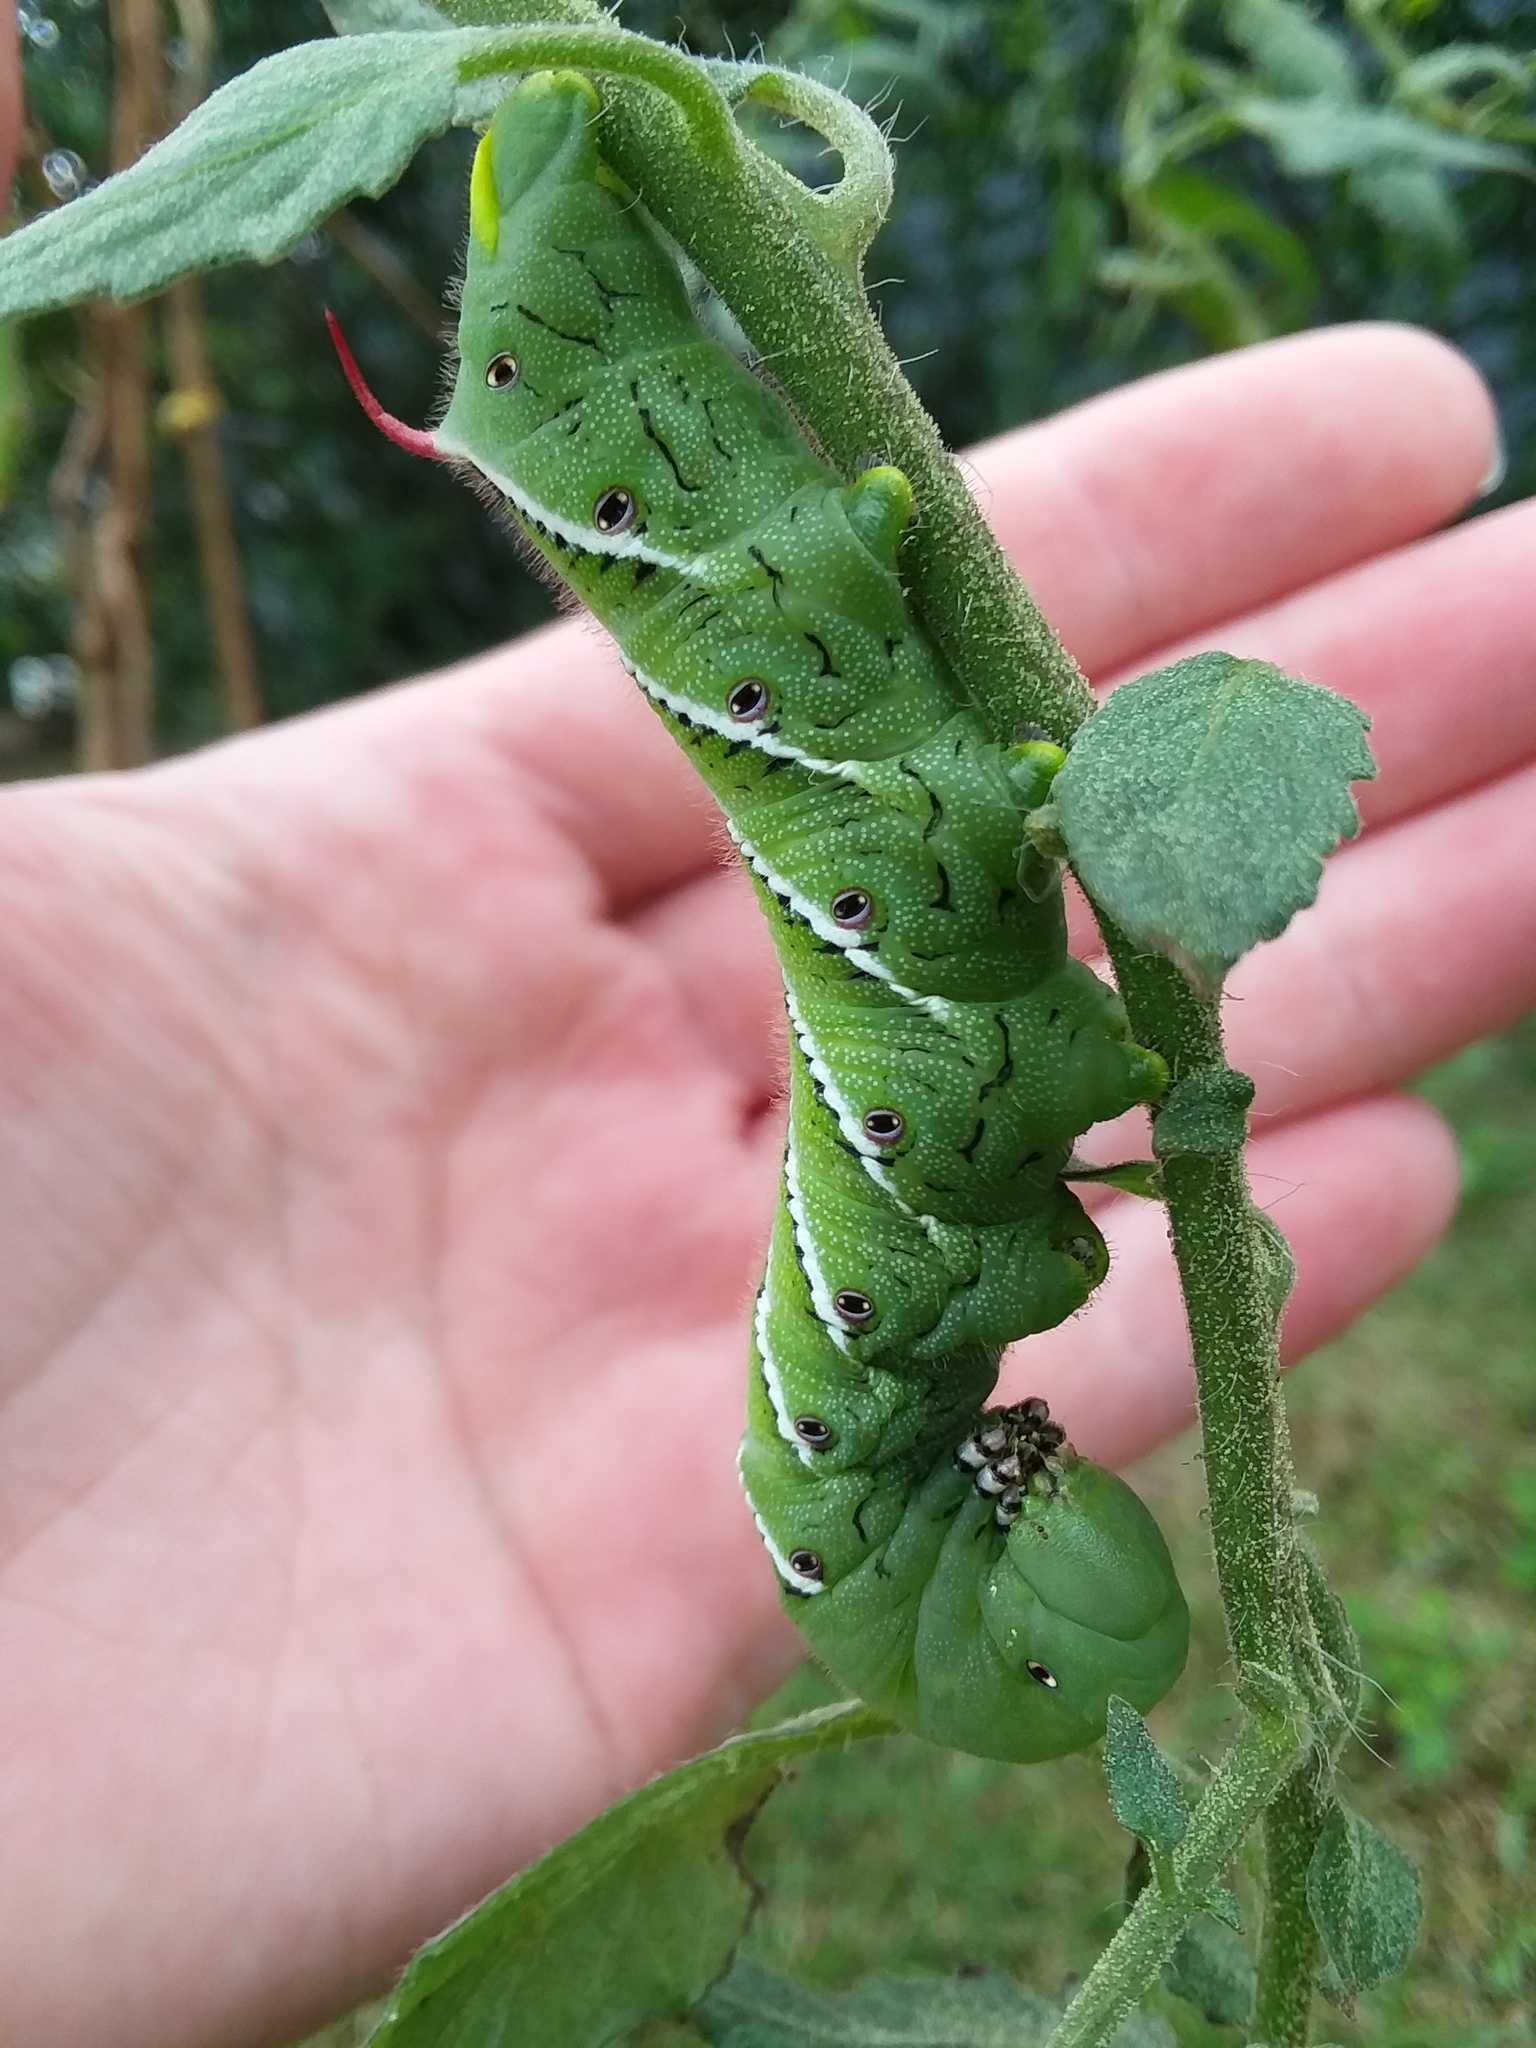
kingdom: Animalia
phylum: Arthropoda
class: Insecta
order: Lepidoptera
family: Sphingidae
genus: Manduca
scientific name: Manduca sexta
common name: Carolina sphinx
